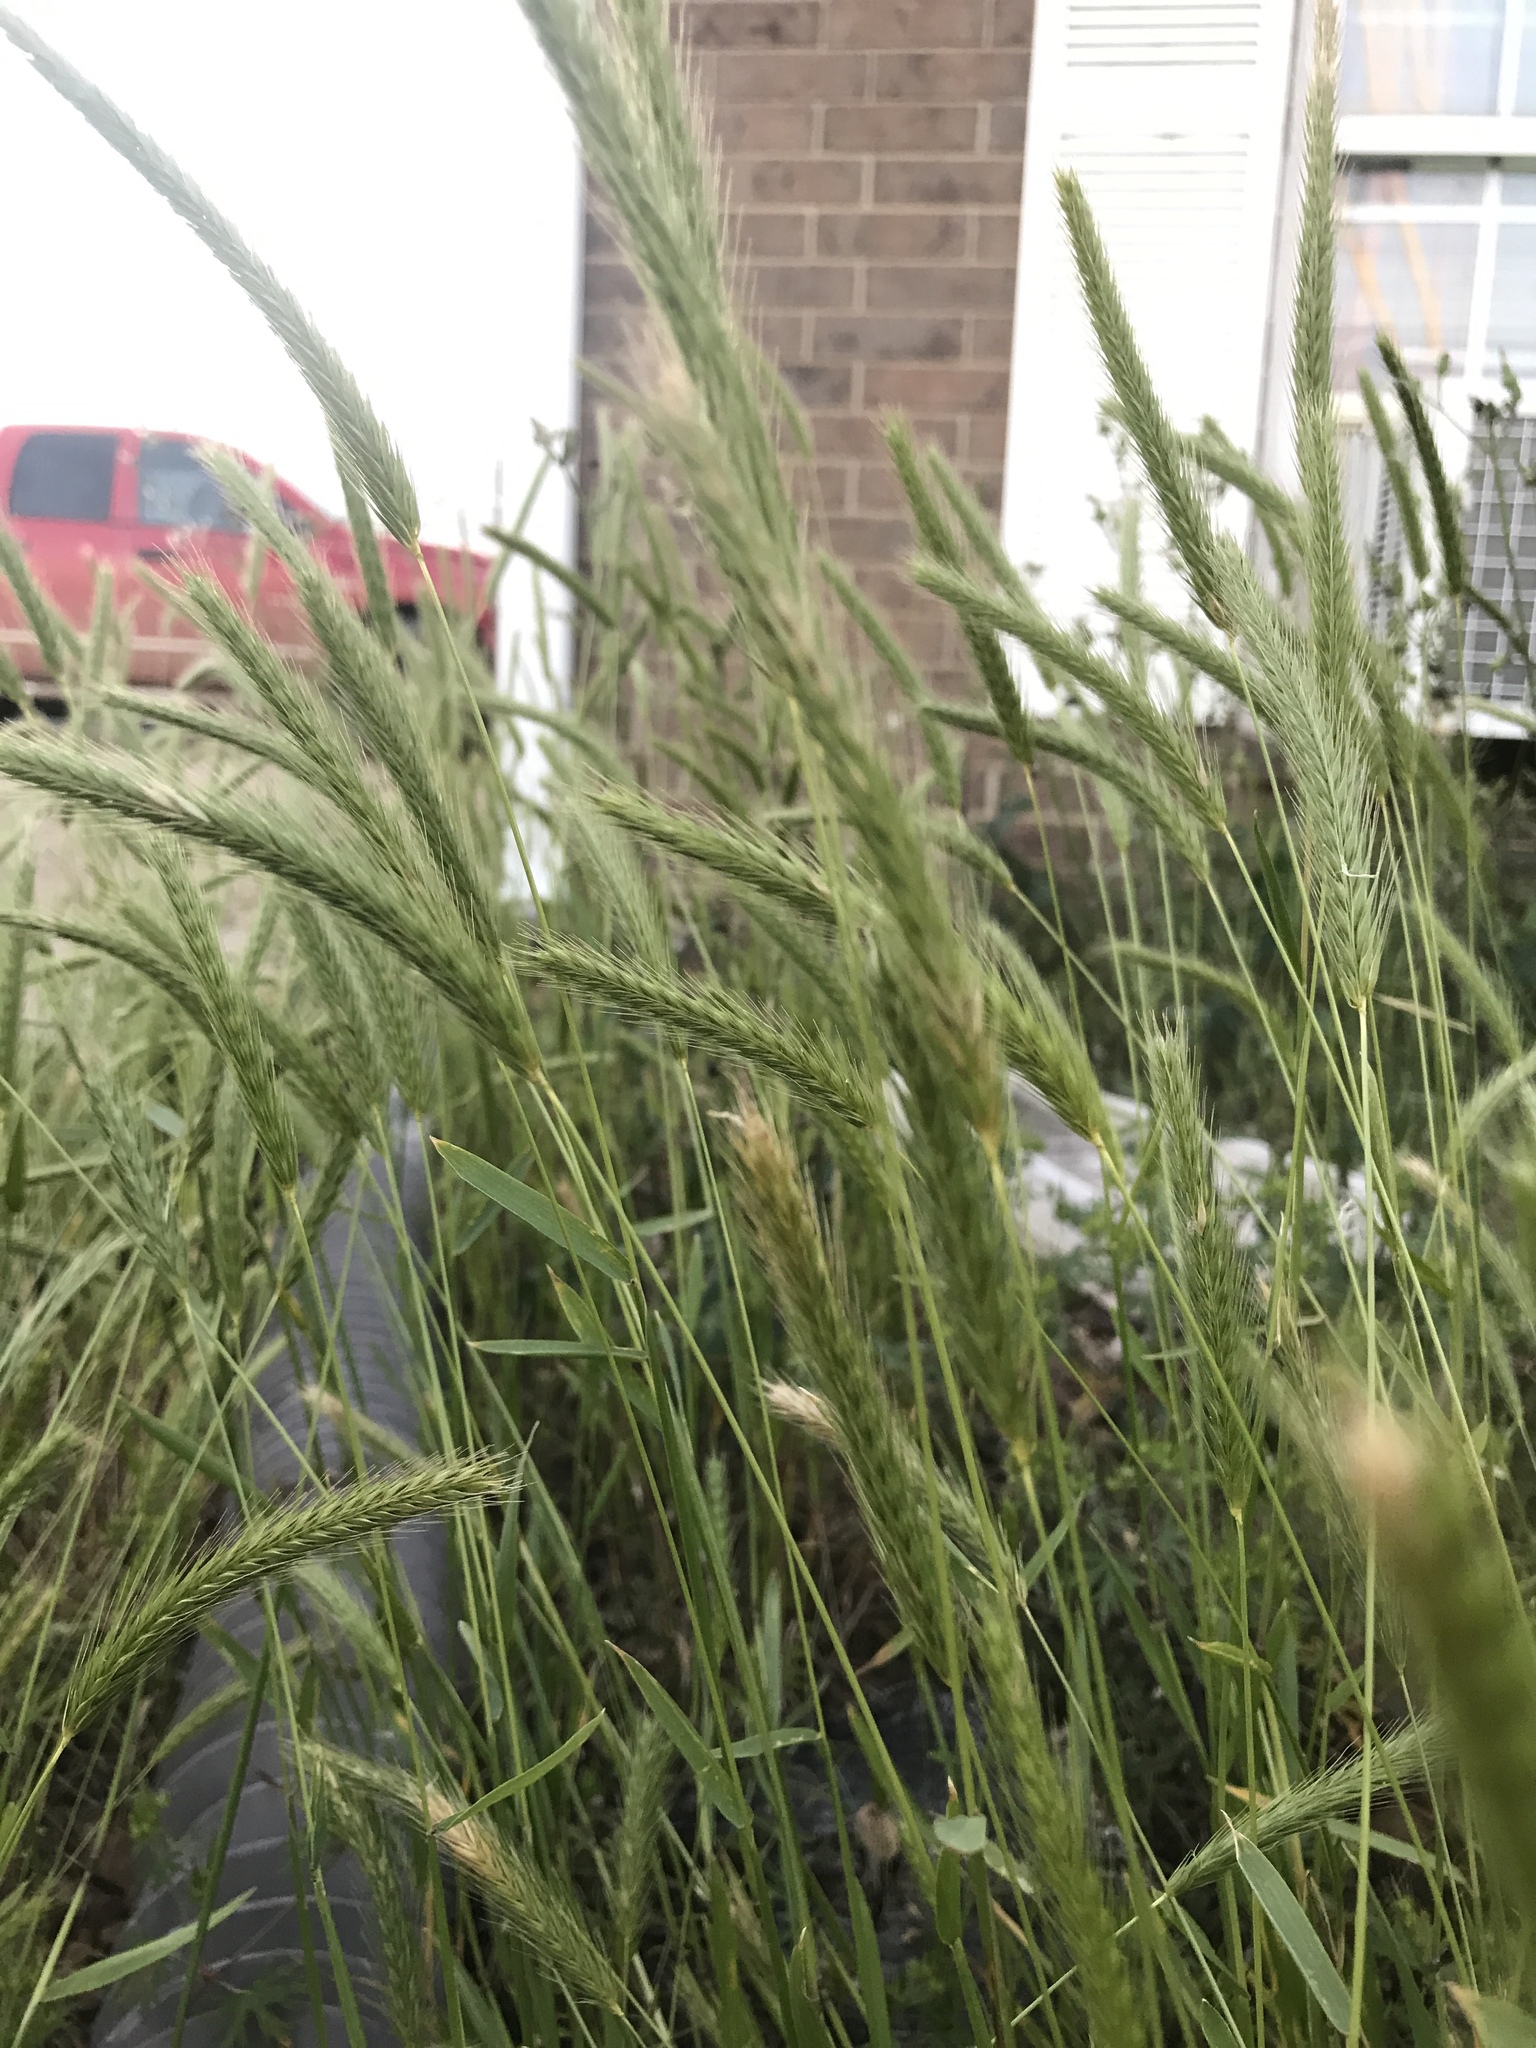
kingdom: Plantae
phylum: Tracheophyta
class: Liliopsida
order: Poales
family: Poaceae
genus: Hordeum
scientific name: Hordeum pusillum
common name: Little barley
